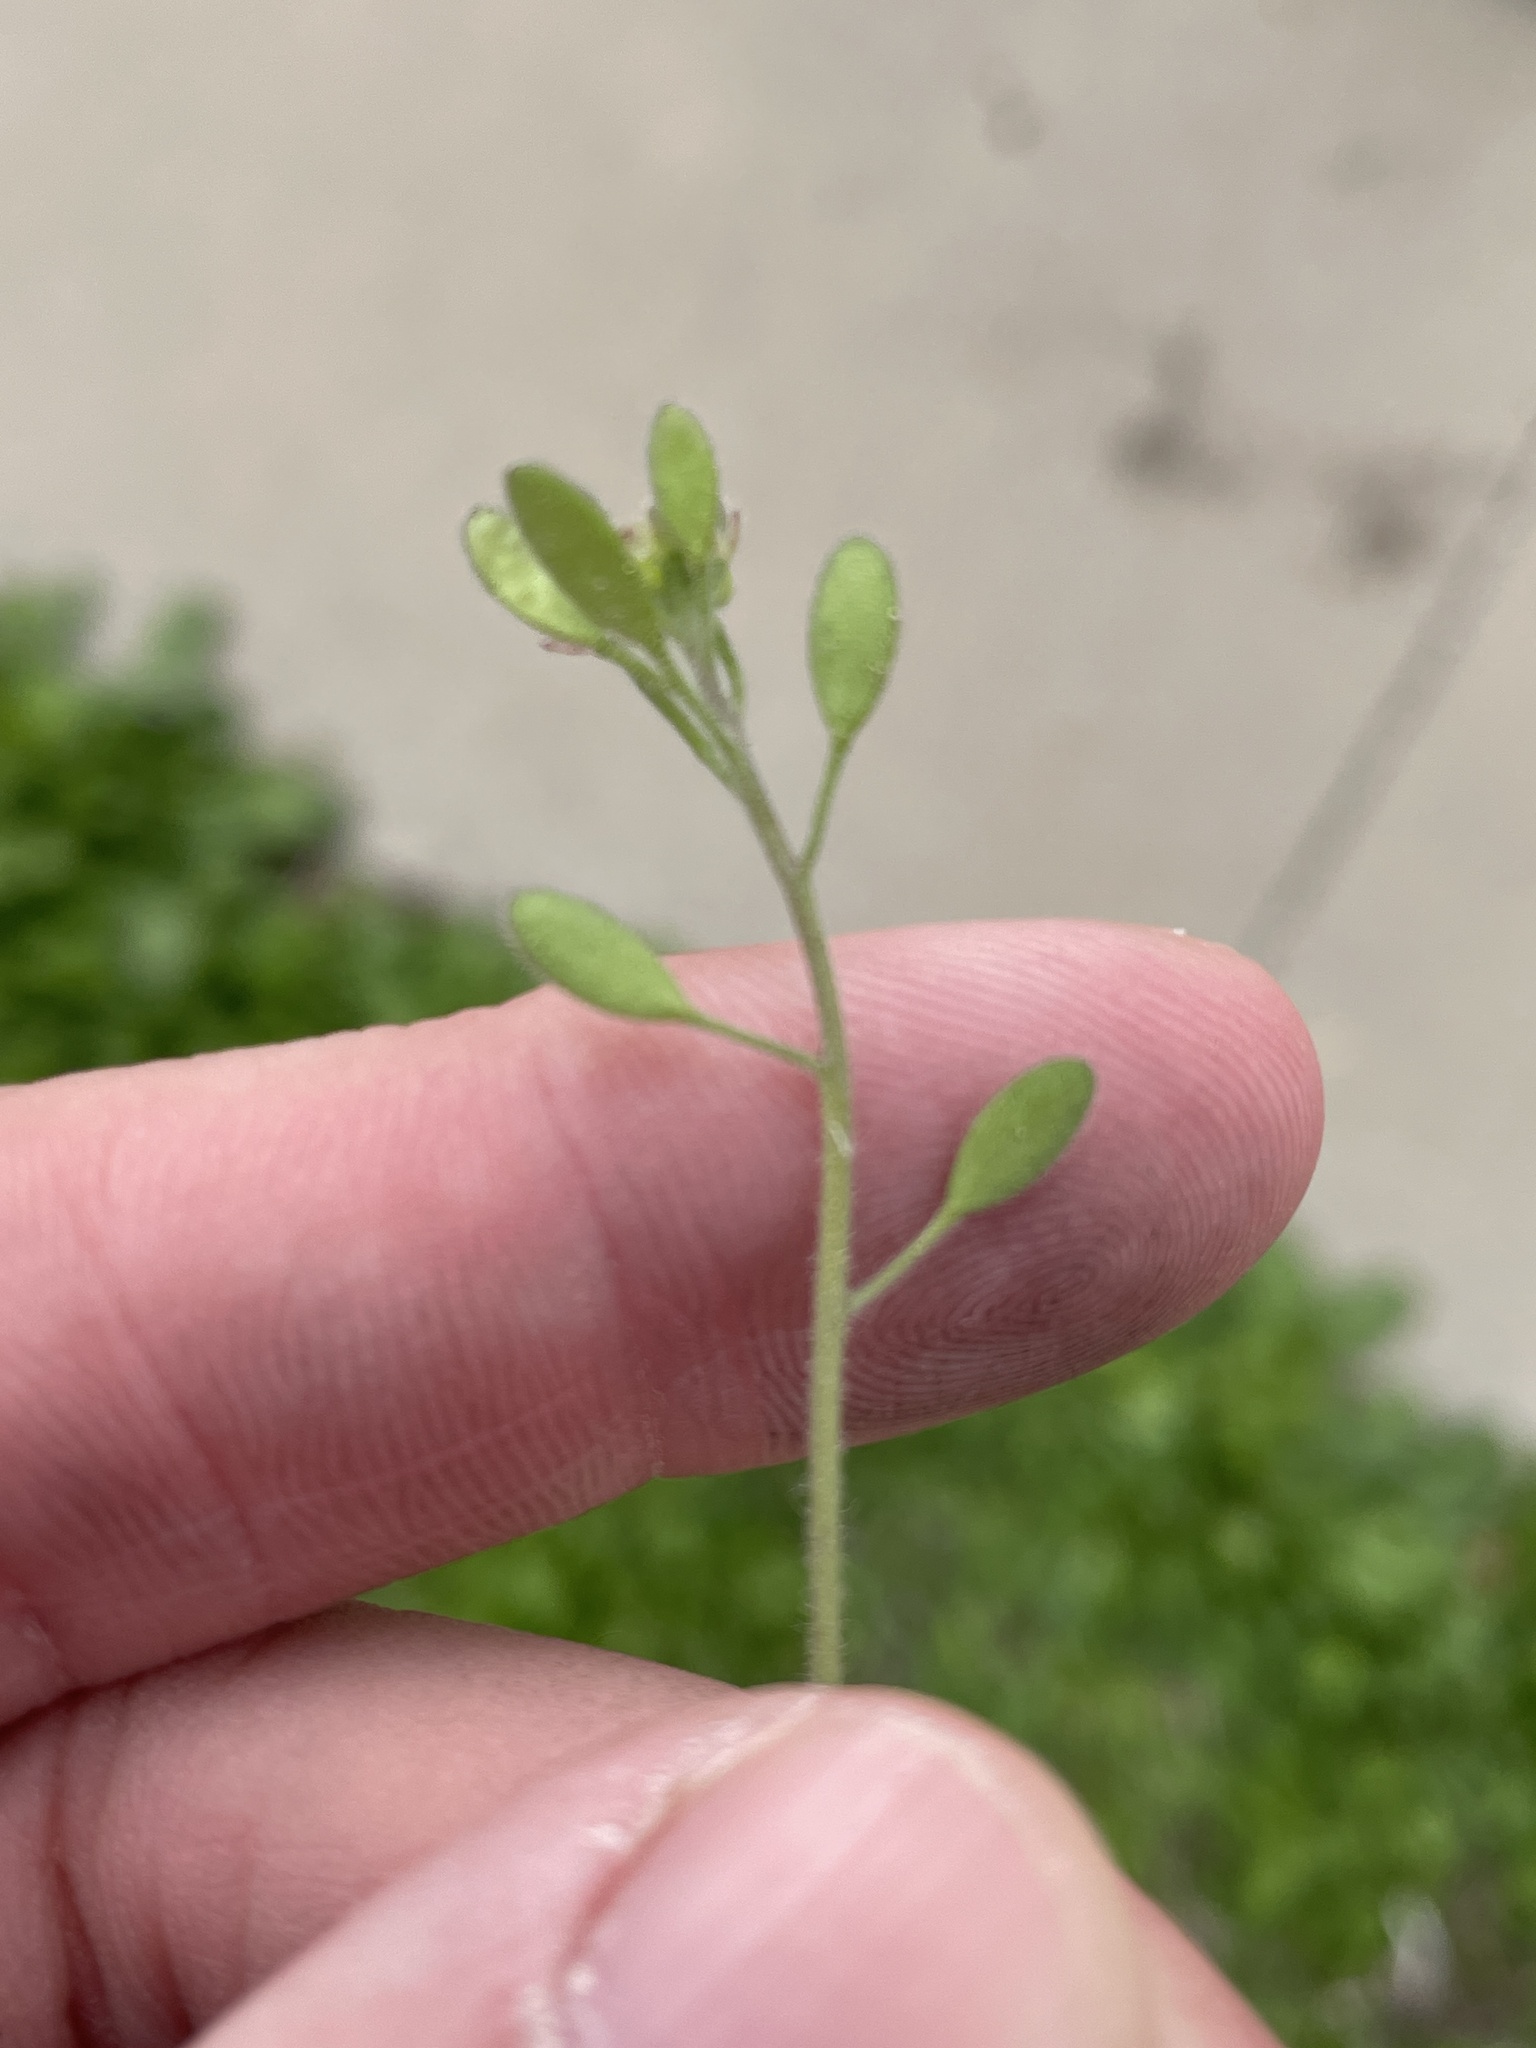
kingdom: Plantae
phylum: Tracheophyta
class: Magnoliopsida
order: Brassicales
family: Brassicaceae
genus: Tomostima
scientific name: Tomostima platycarpa
